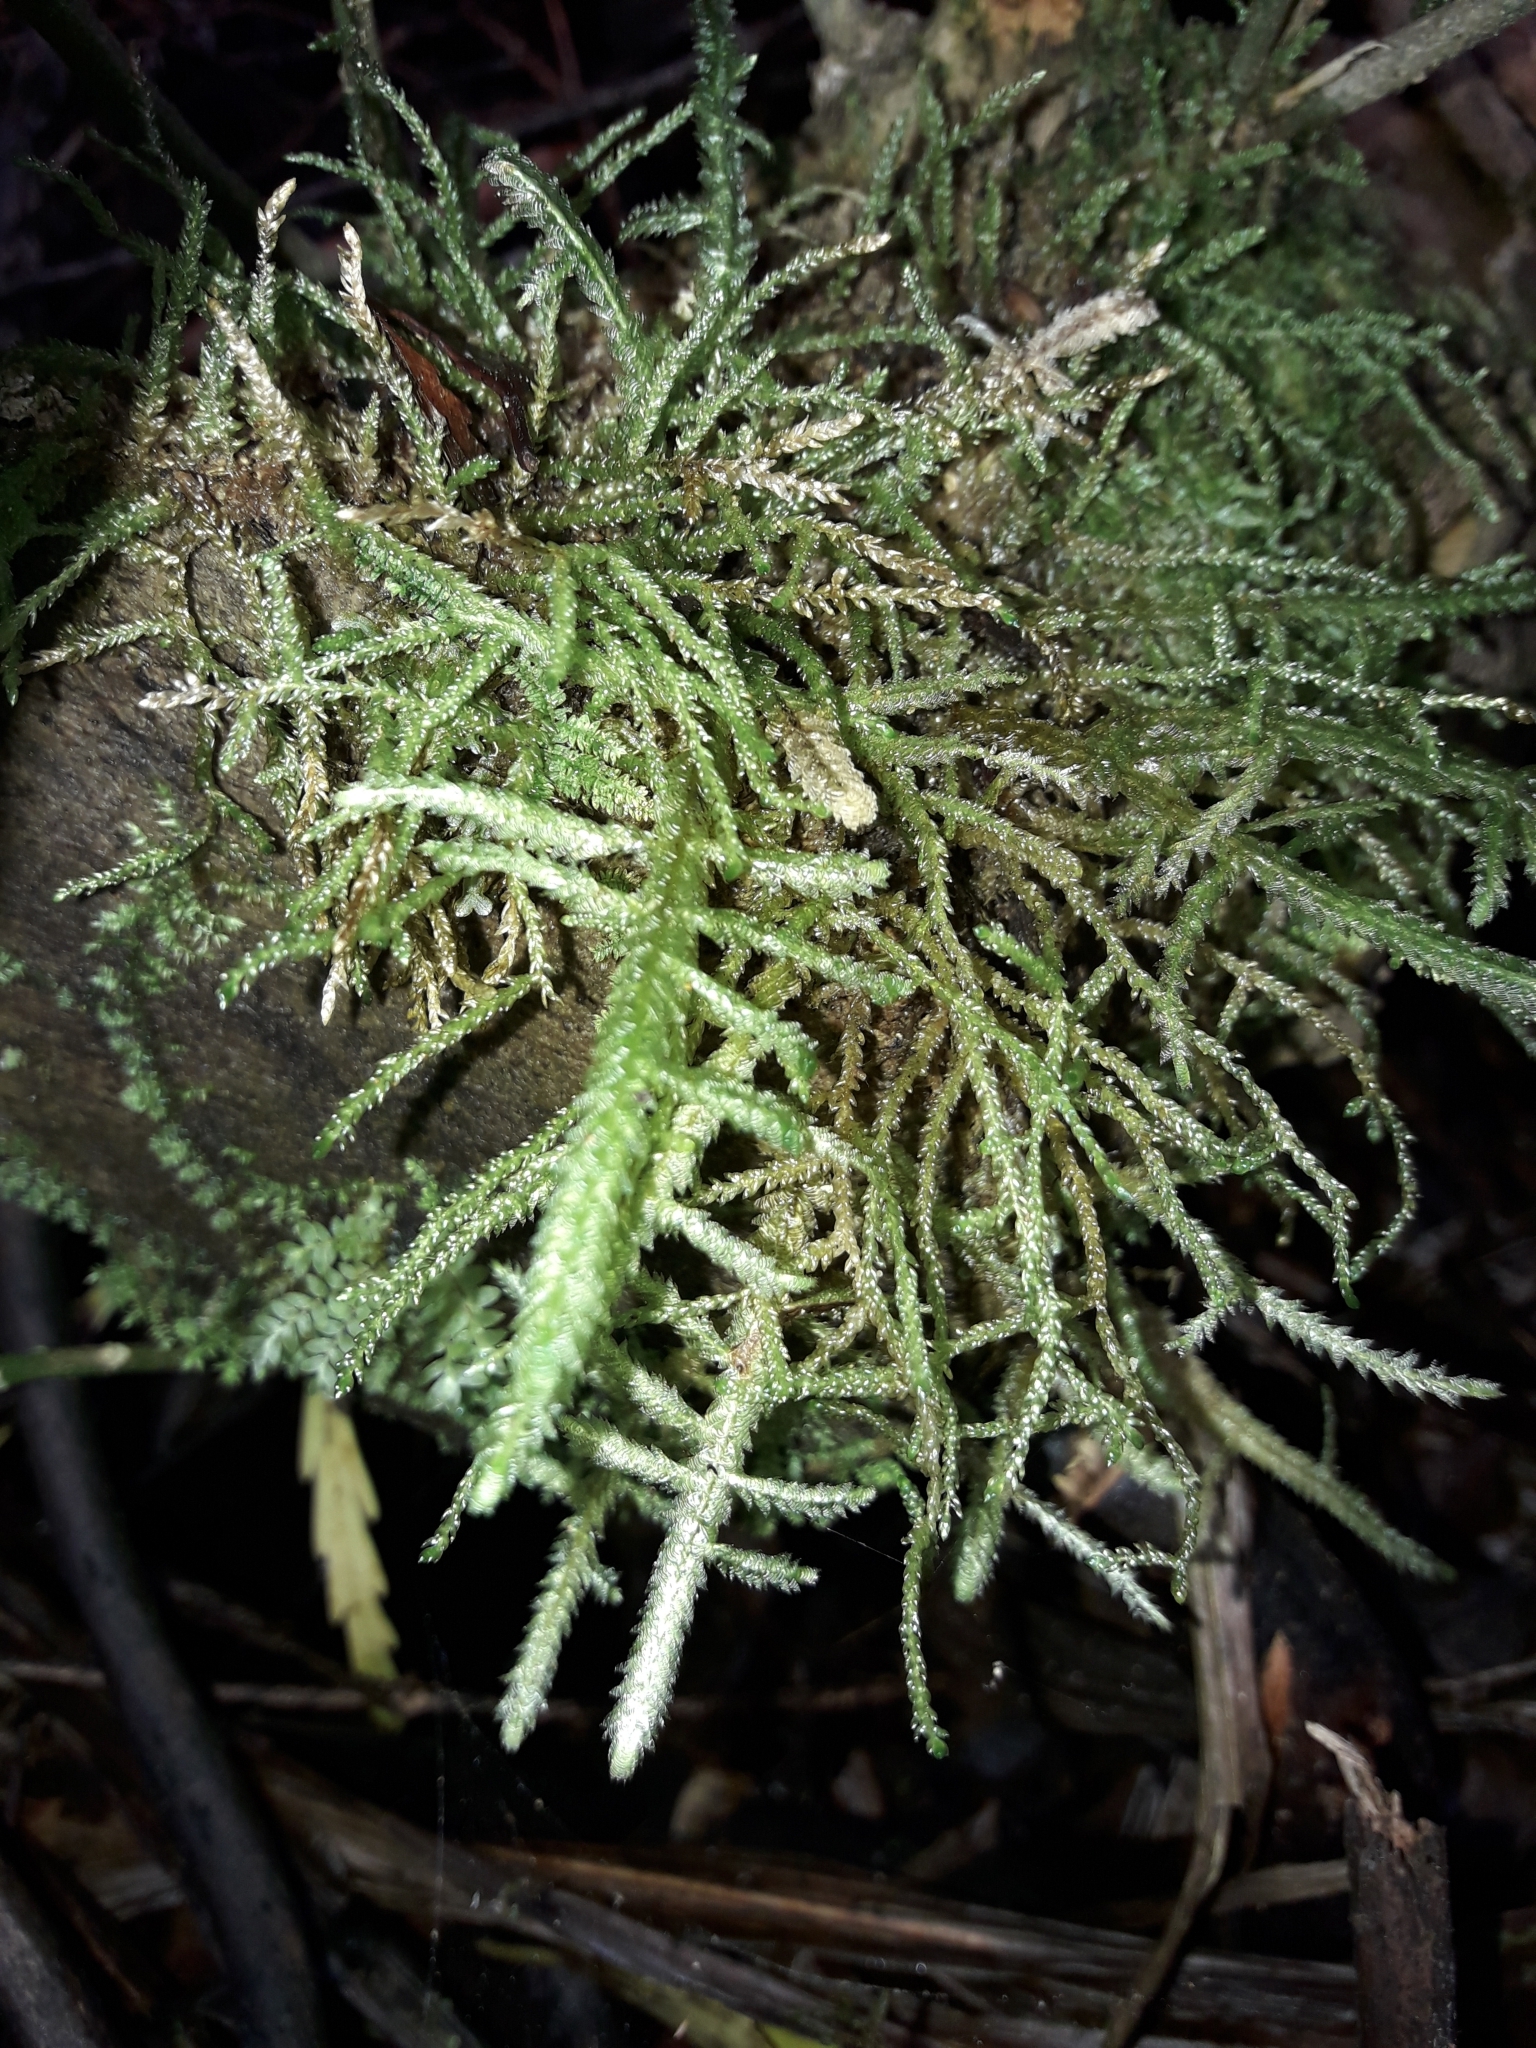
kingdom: Plantae
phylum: Bryophyta
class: Bryopsida
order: Hypnales
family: Neckeraceae
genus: Alleniella
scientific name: Alleniella hymenodonta
